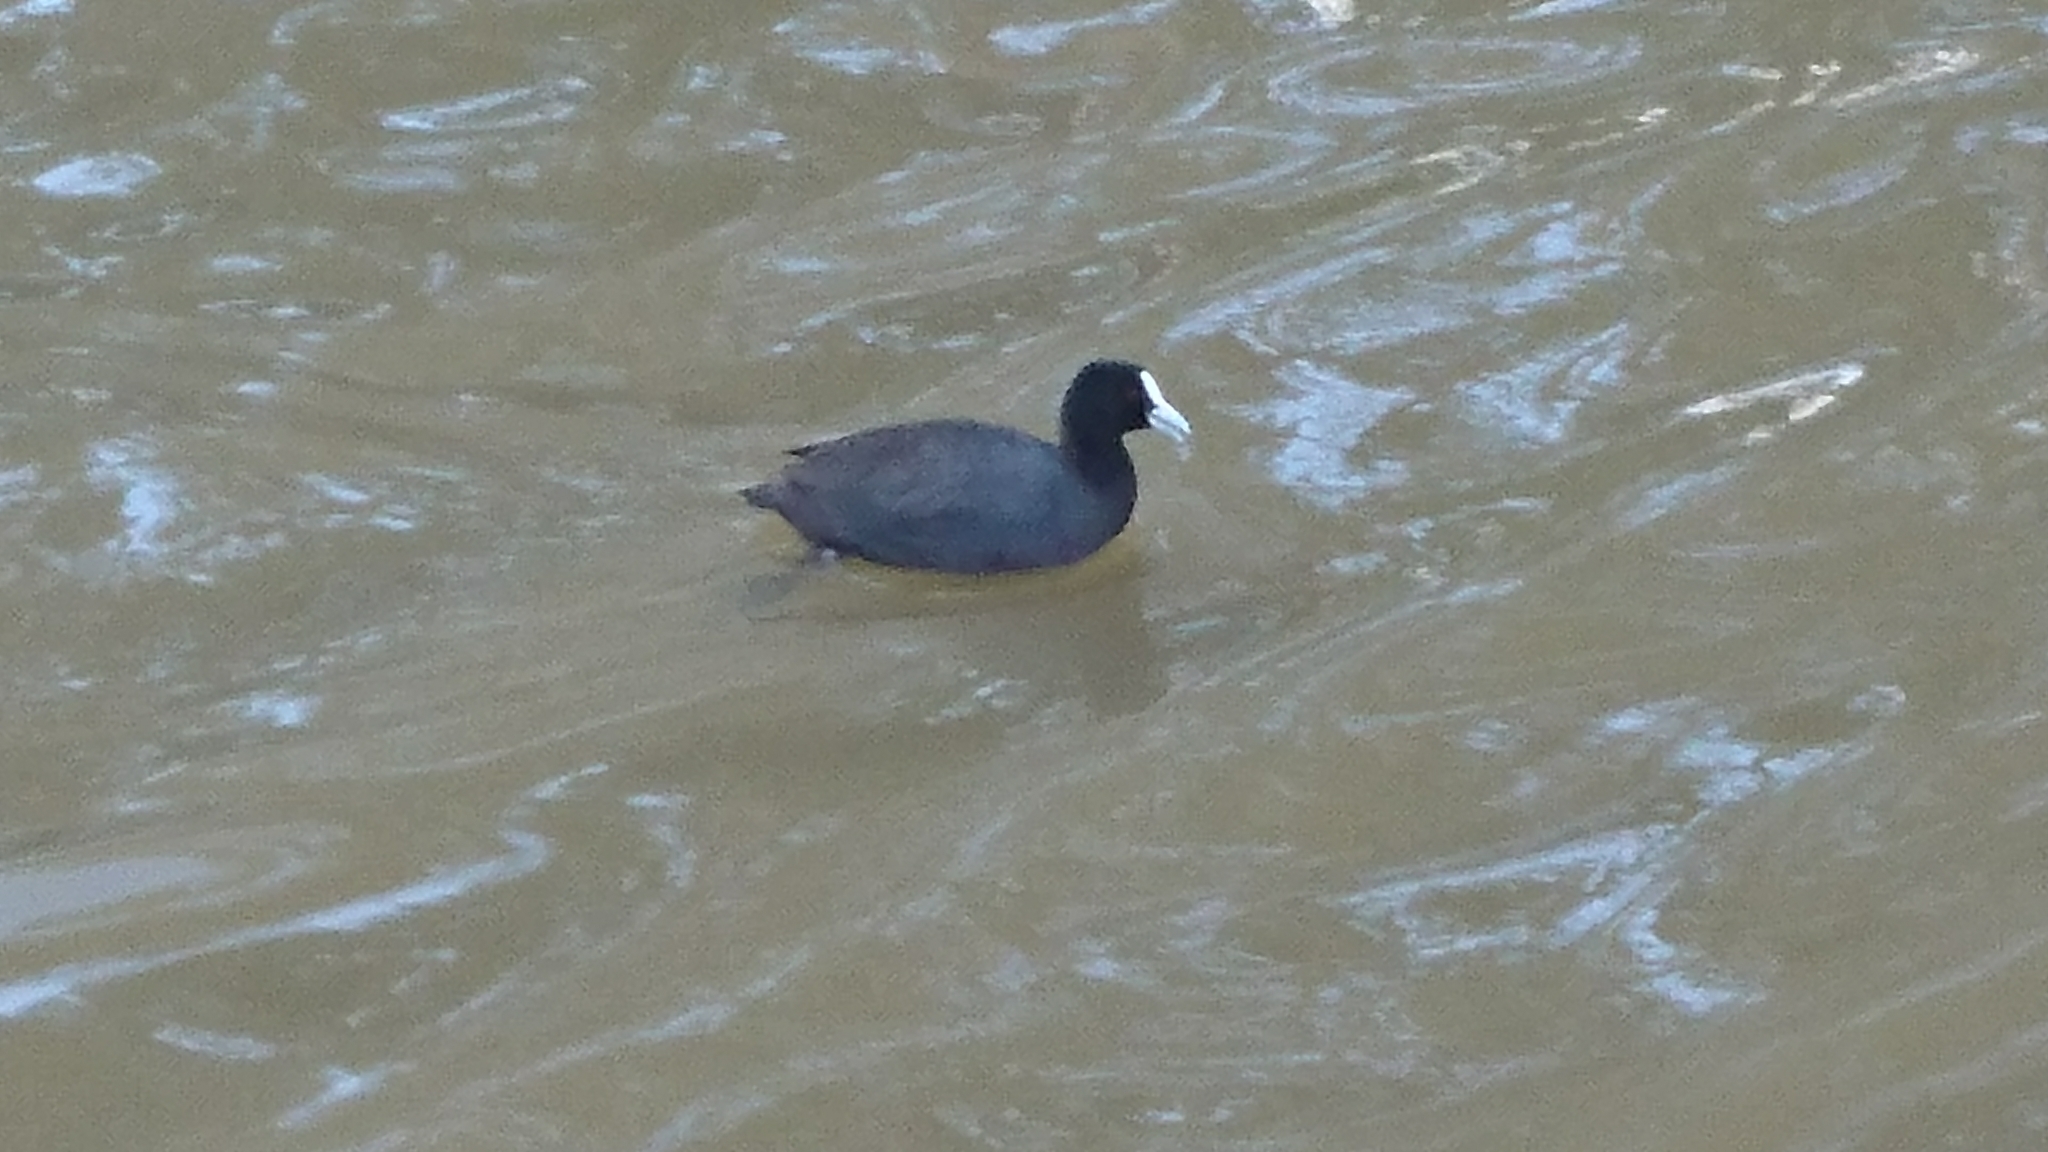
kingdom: Animalia
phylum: Chordata
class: Aves
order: Gruiformes
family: Rallidae
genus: Fulica
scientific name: Fulica atra
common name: Eurasian coot
